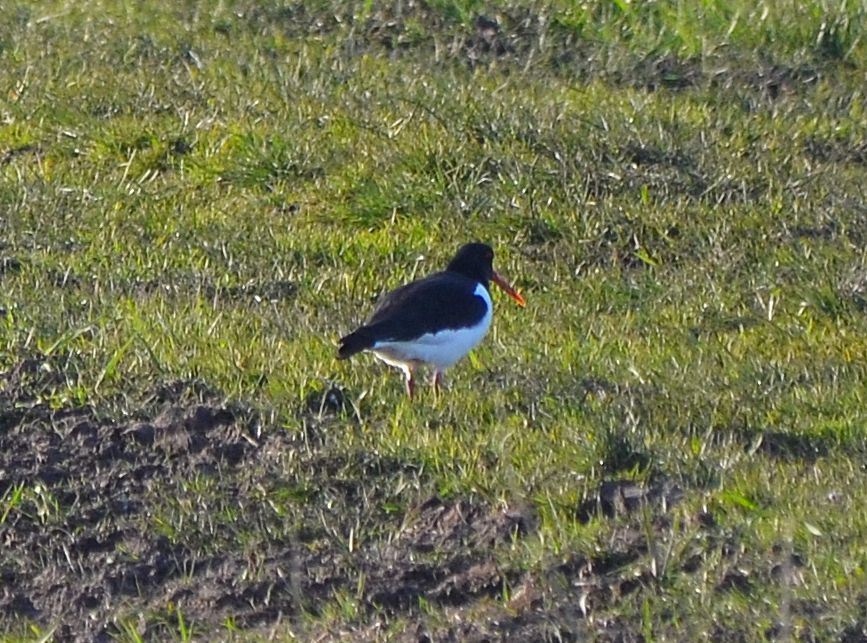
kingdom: Animalia
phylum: Chordata
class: Aves
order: Charadriiformes
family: Haematopodidae
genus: Haematopus
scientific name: Haematopus ostralegus
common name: Eurasian oystercatcher
